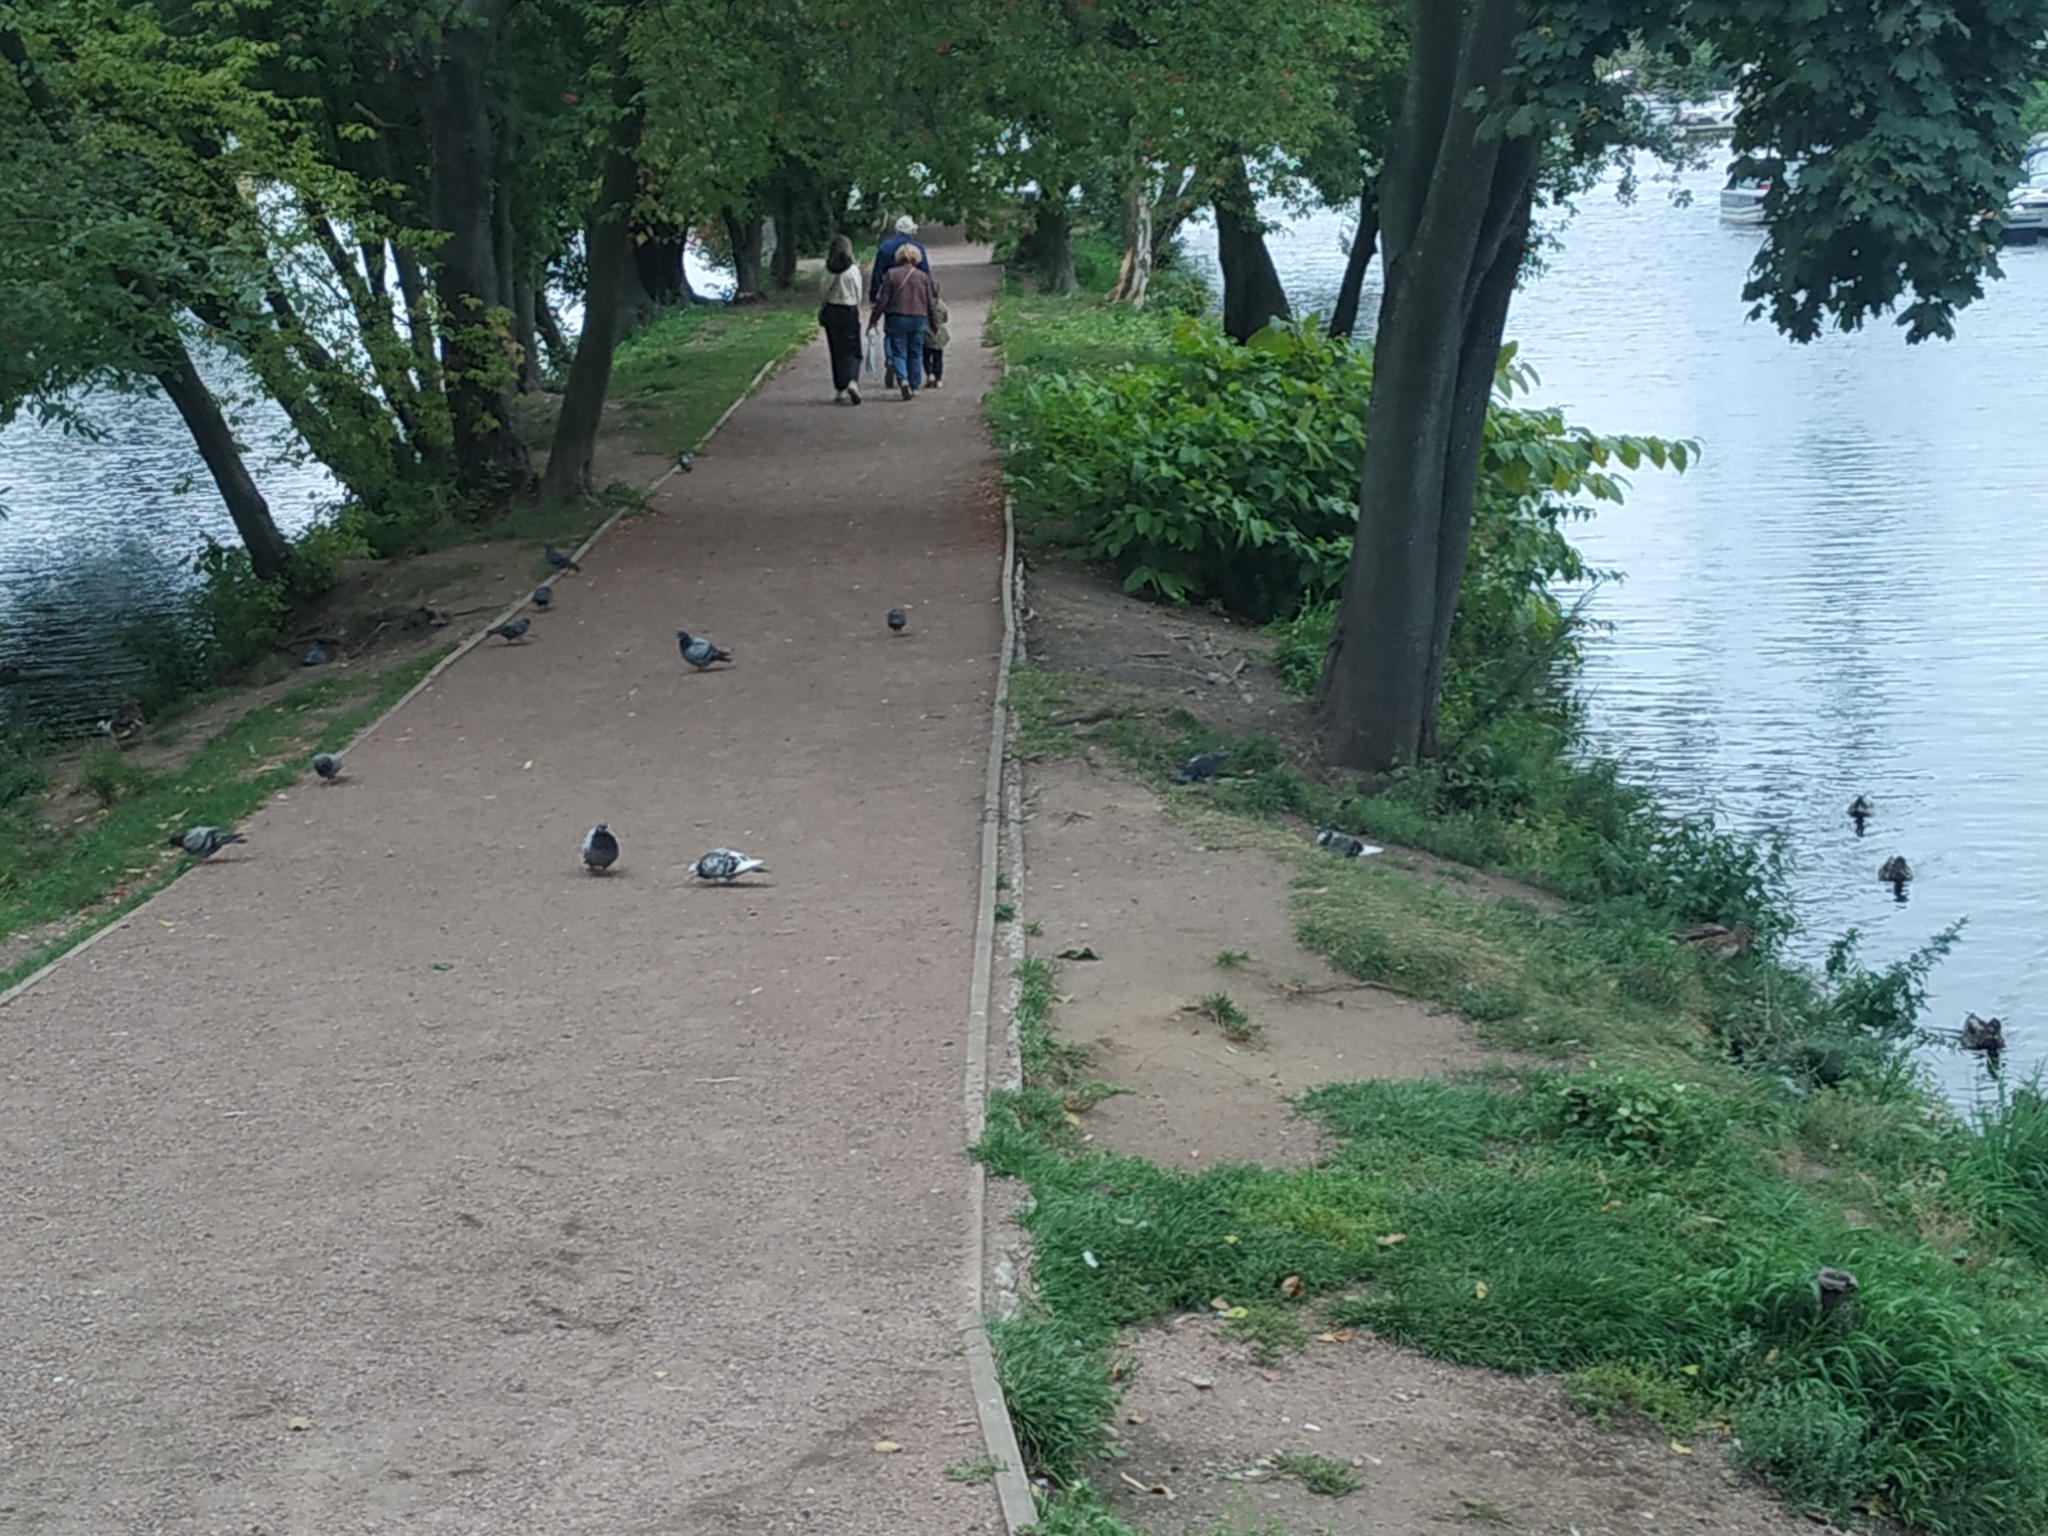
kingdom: Animalia
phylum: Chordata
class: Aves
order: Columbiformes
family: Columbidae
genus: Columba
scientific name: Columba livia
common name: Rock pigeon
